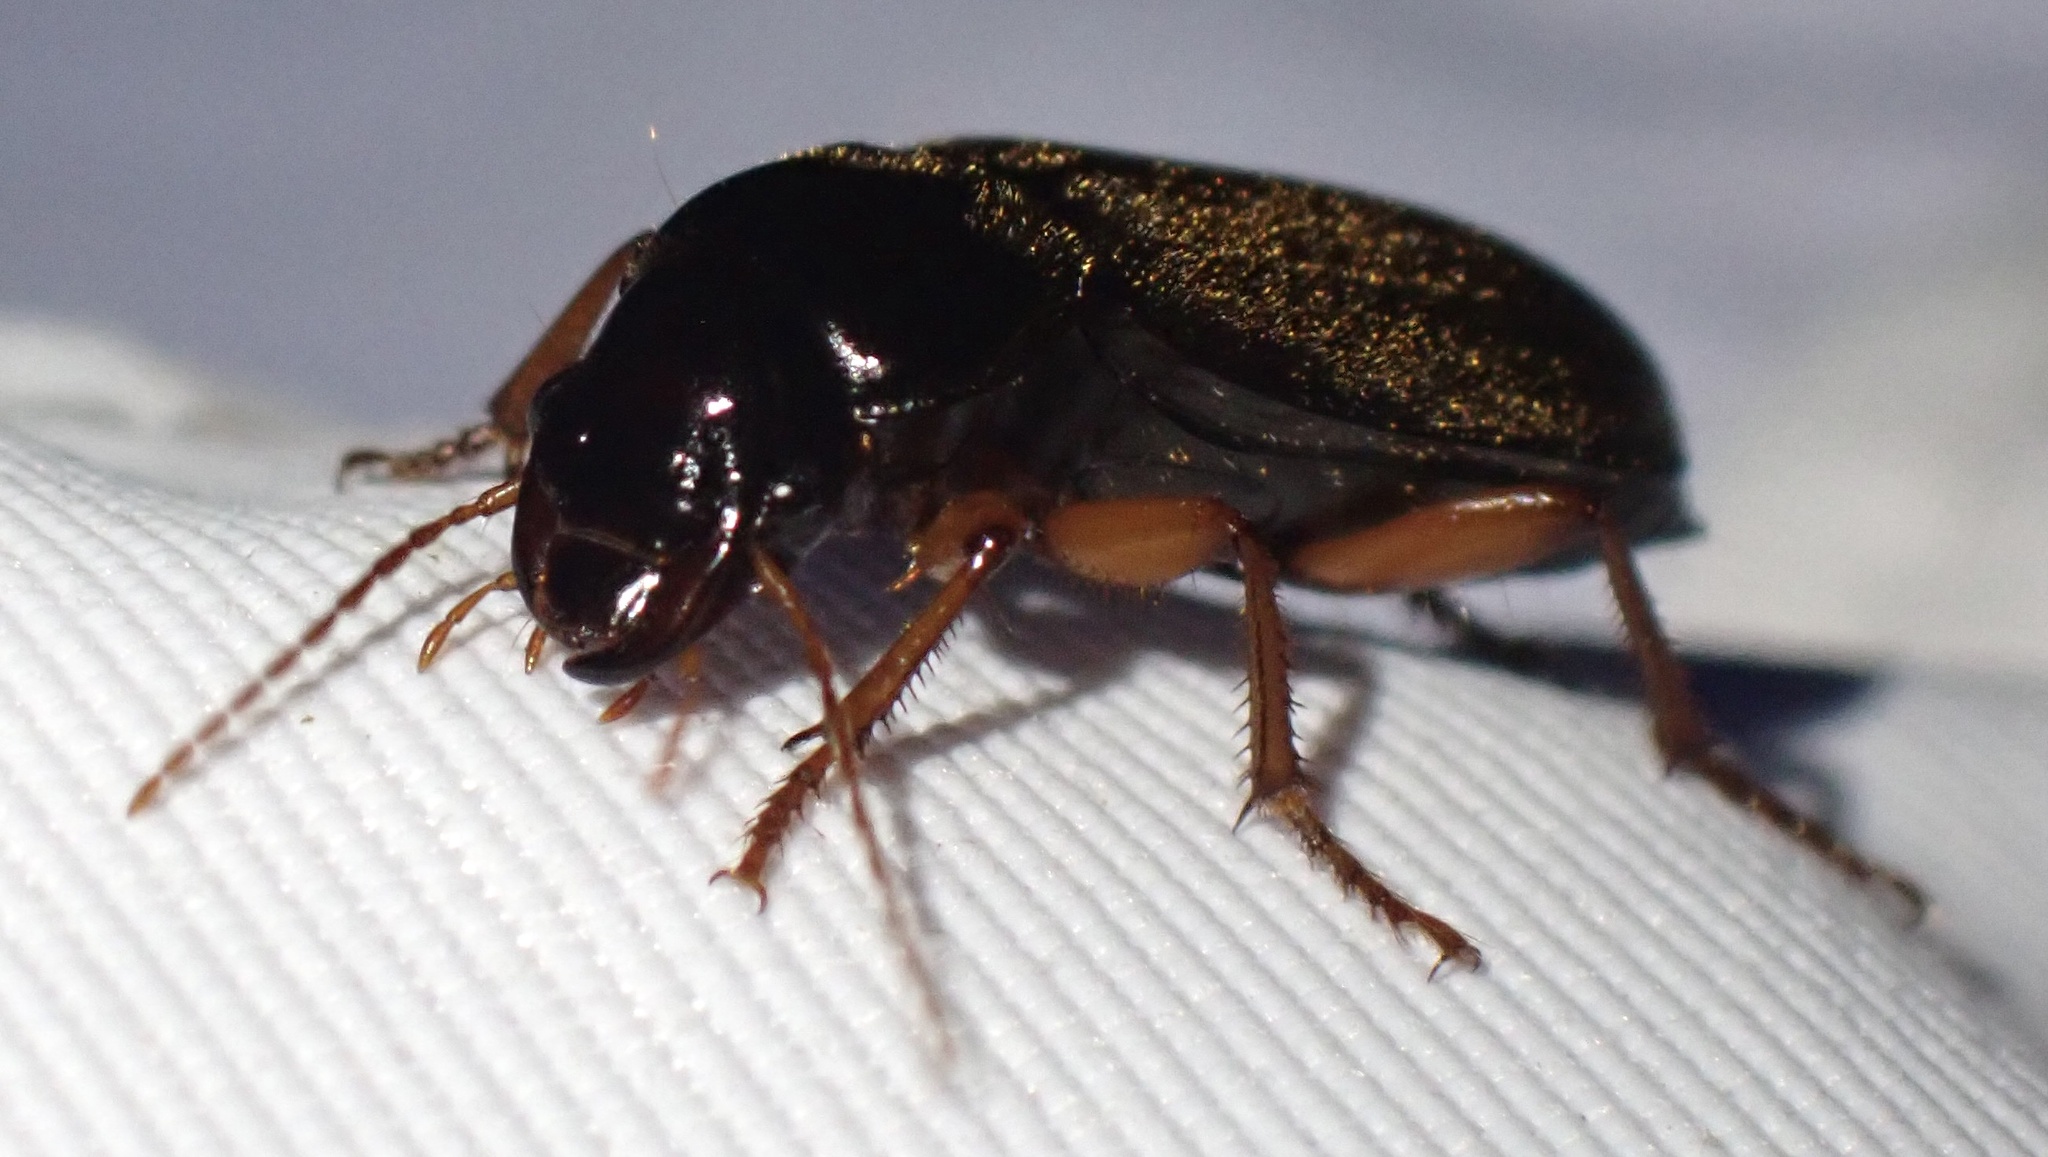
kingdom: Animalia
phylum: Arthropoda
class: Insecta
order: Coleoptera
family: Carabidae
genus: Harpalus
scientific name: Harpalus rufipes
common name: Strawberry harp ground beetle
